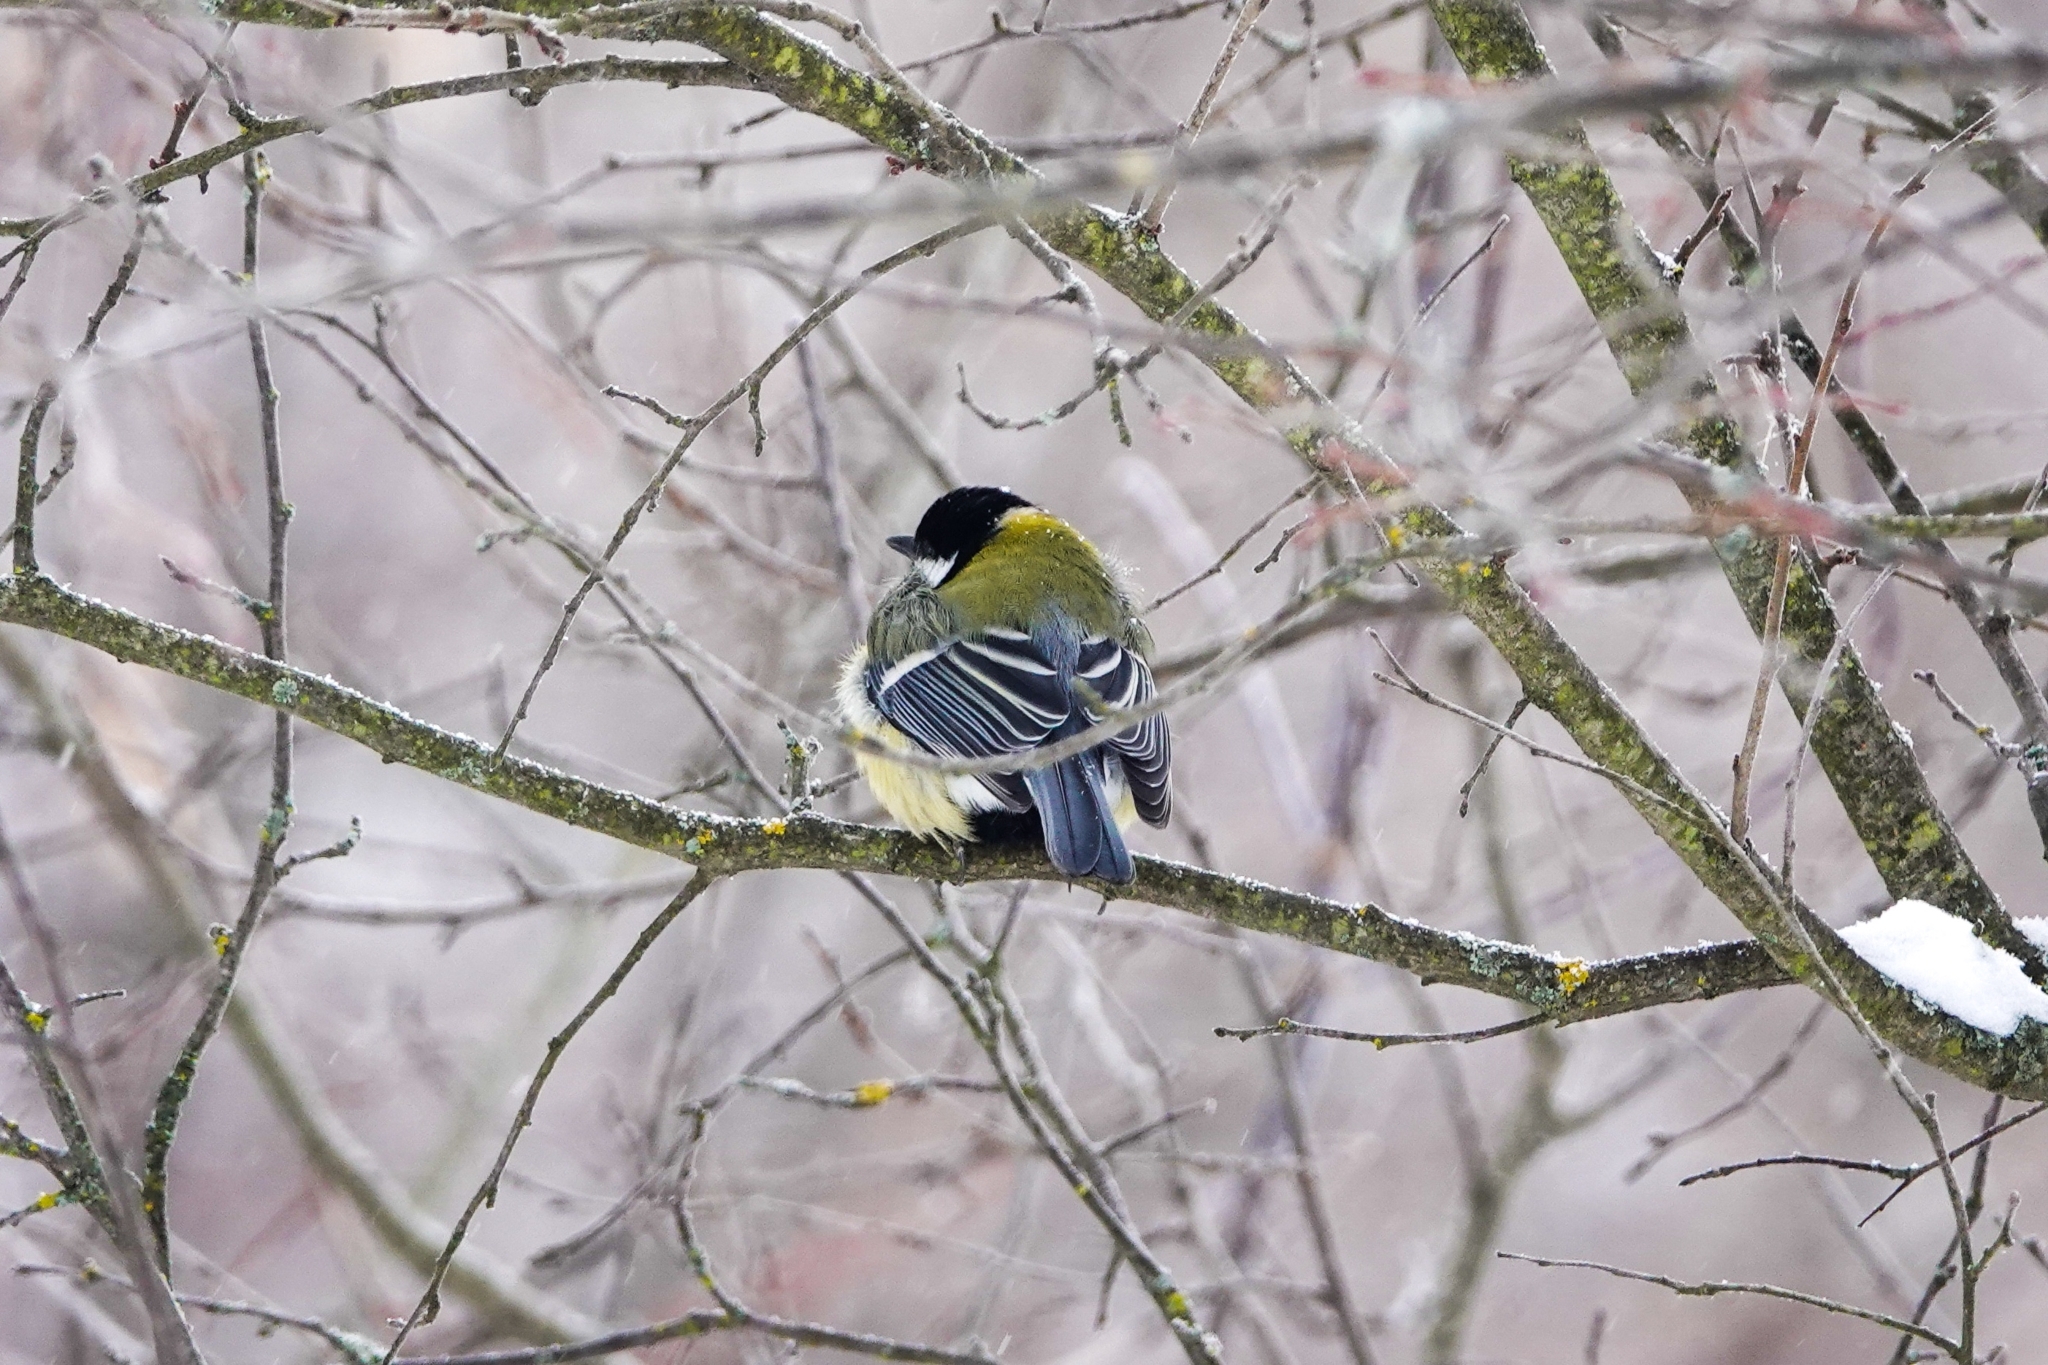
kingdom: Animalia
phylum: Chordata
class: Aves
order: Passeriformes
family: Paridae
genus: Parus
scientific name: Parus major
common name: Great tit
